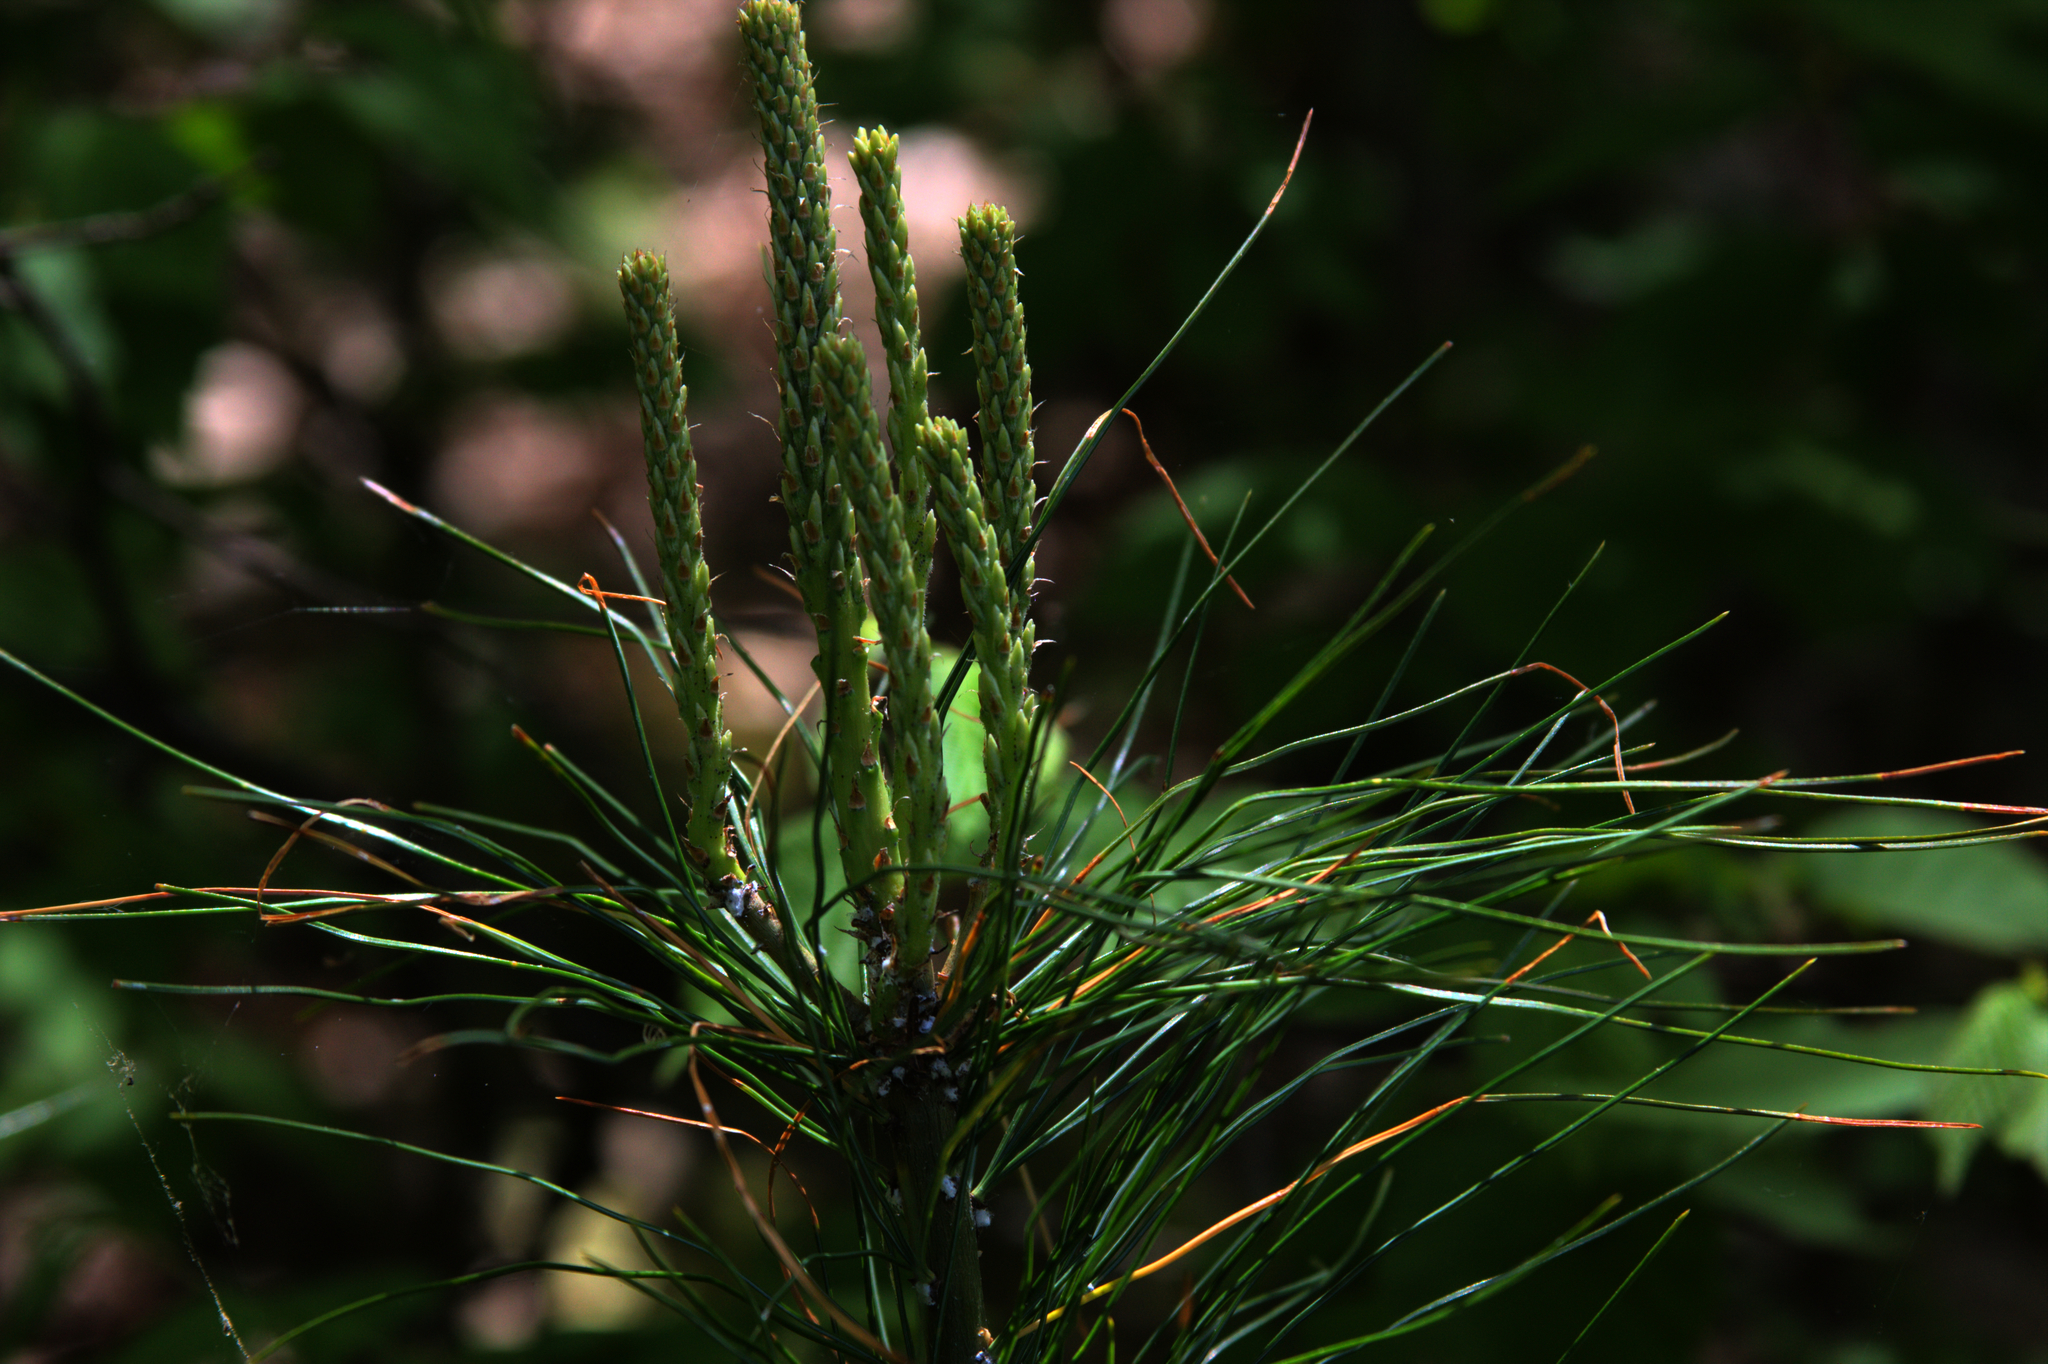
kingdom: Plantae
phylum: Tracheophyta
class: Pinopsida
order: Pinales
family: Pinaceae
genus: Pinus
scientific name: Pinus strobus
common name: Weymouth pine
